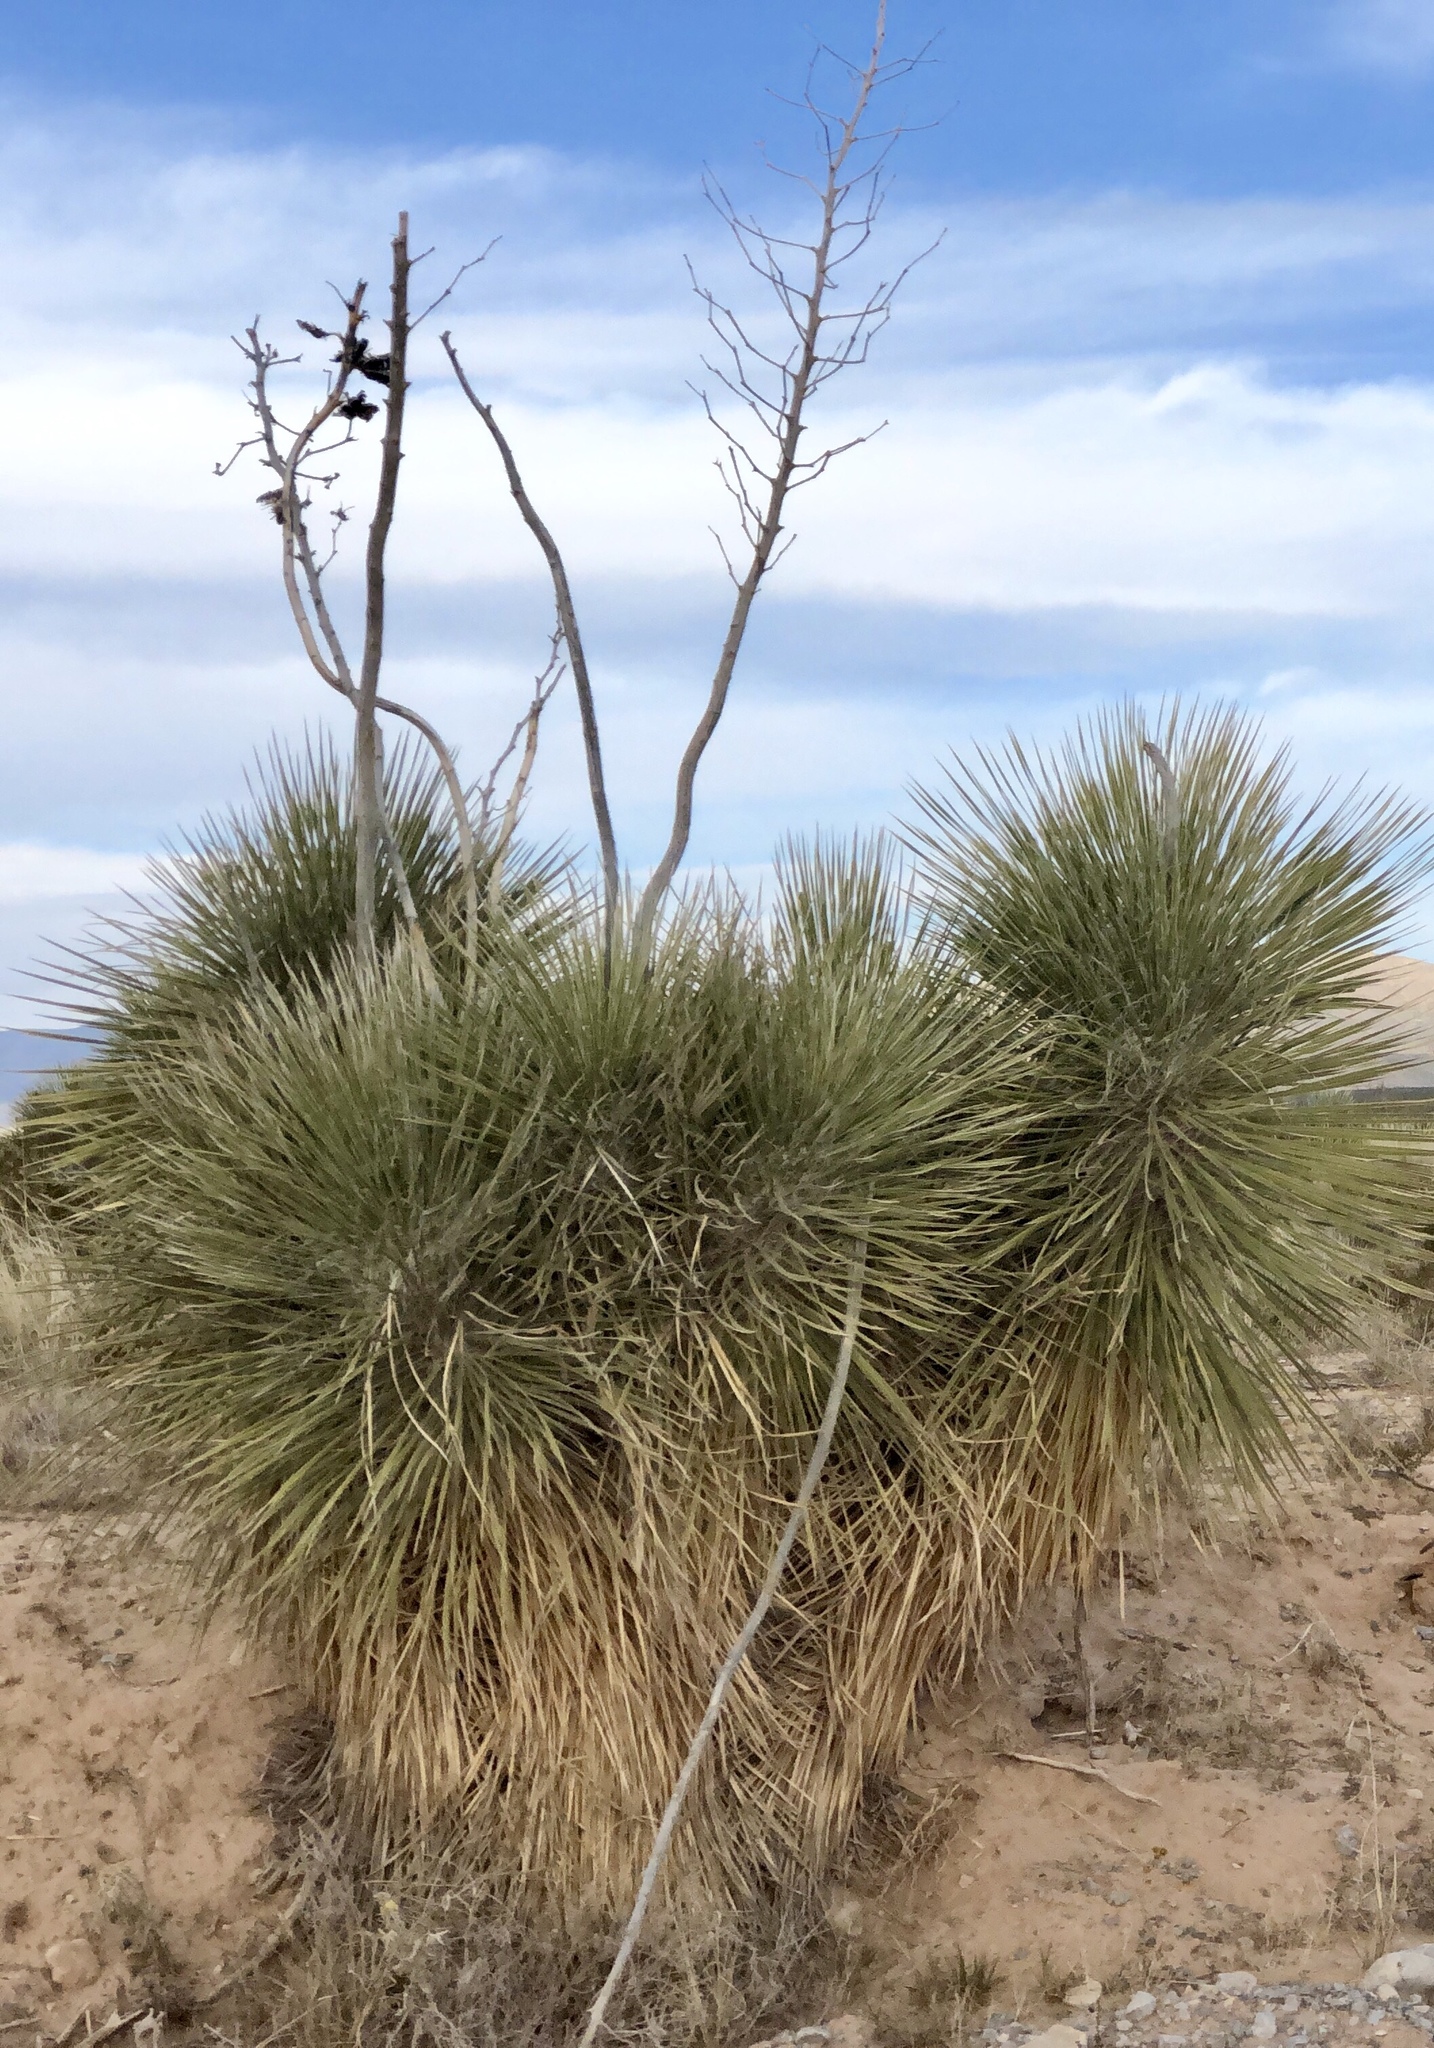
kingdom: Plantae
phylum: Tracheophyta
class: Liliopsida
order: Asparagales
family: Asparagaceae
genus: Yucca
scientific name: Yucca elata
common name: Palmella
